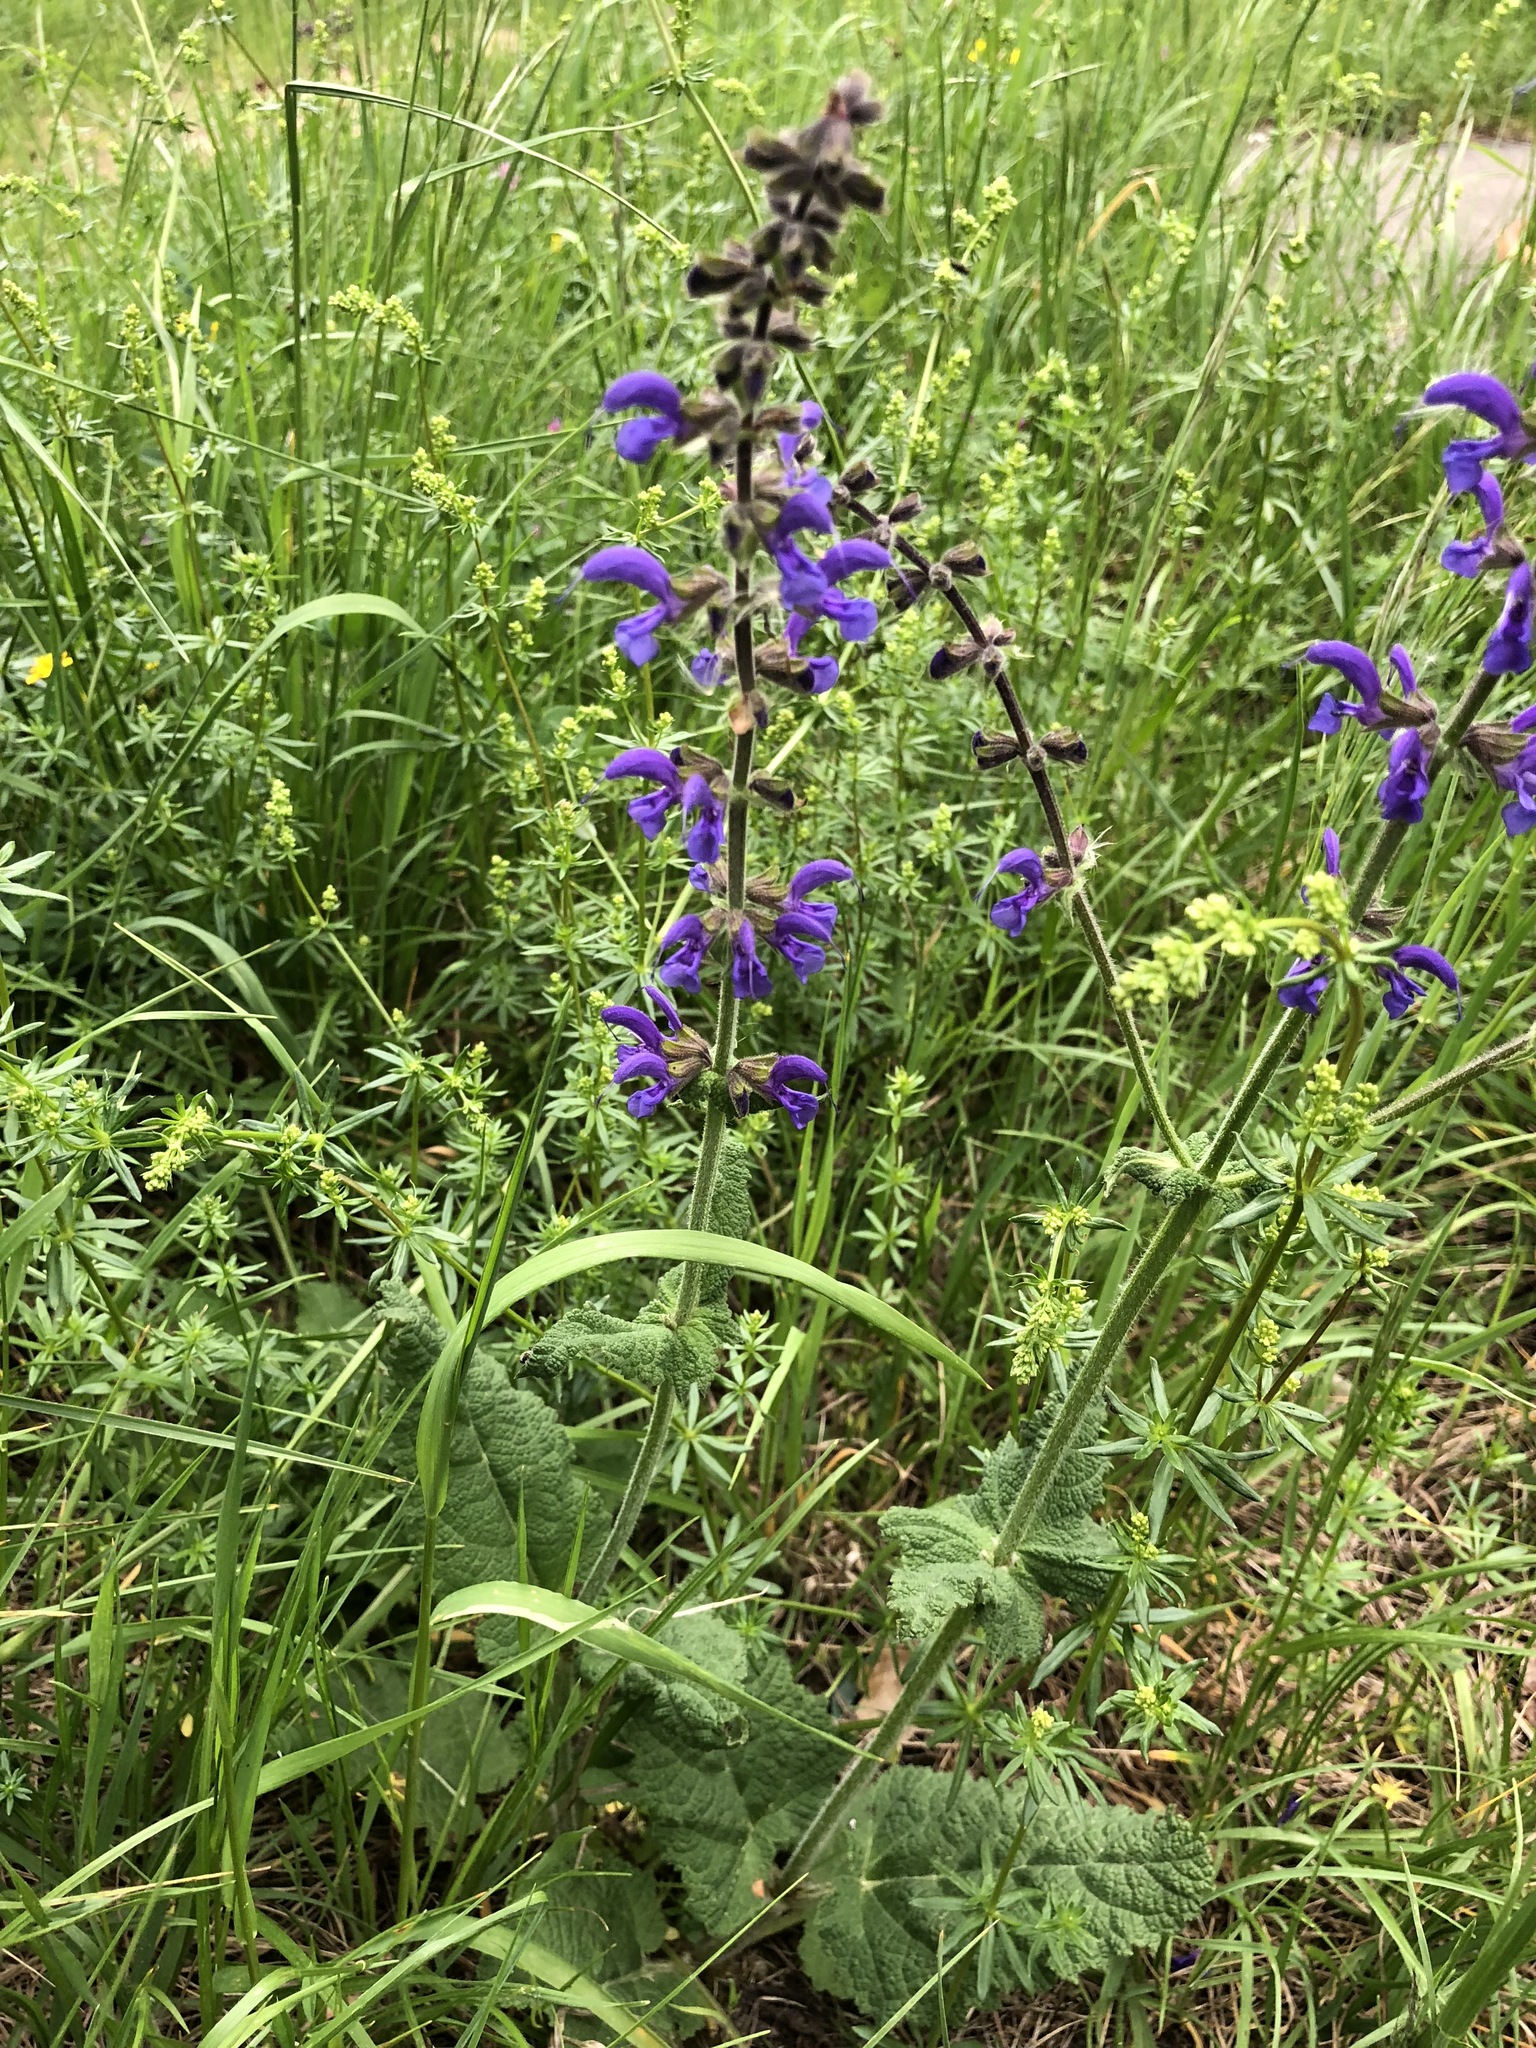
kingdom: Plantae
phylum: Tracheophyta
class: Magnoliopsida
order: Lamiales
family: Lamiaceae
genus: Salvia
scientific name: Salvia pratensis
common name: Meadow sage
